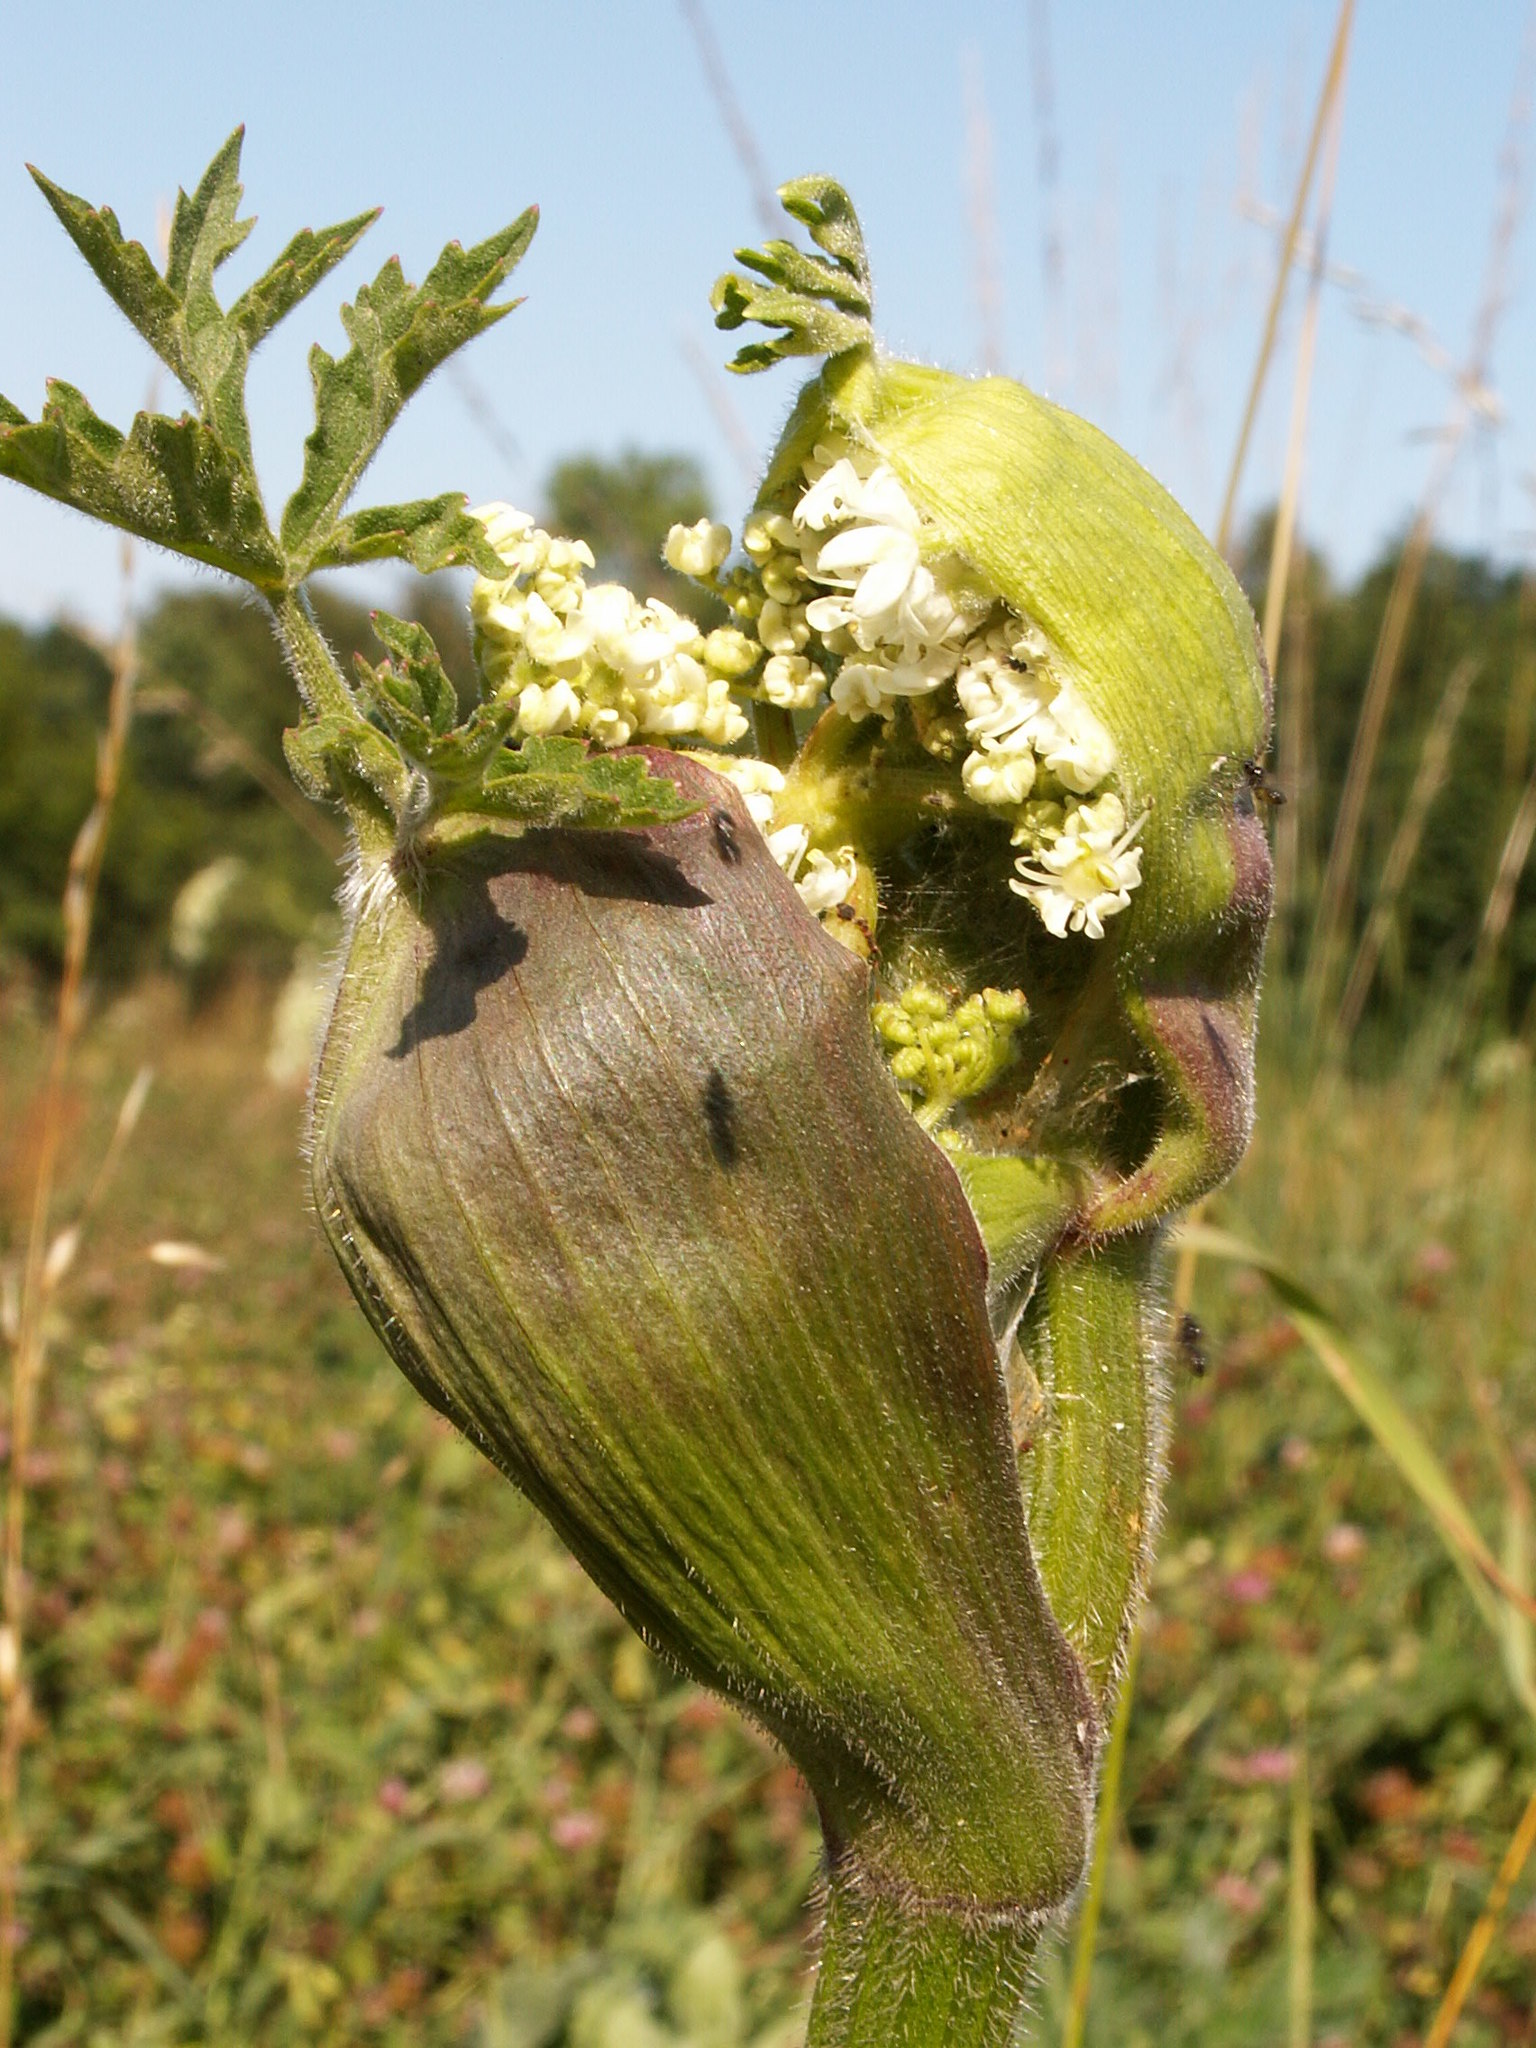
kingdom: Plantae
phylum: Tracheophyta
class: Magnoliopsida
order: Apiales
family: Apiaceae
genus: Heracleum
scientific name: Heracleum sphondylium
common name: Hogweed
